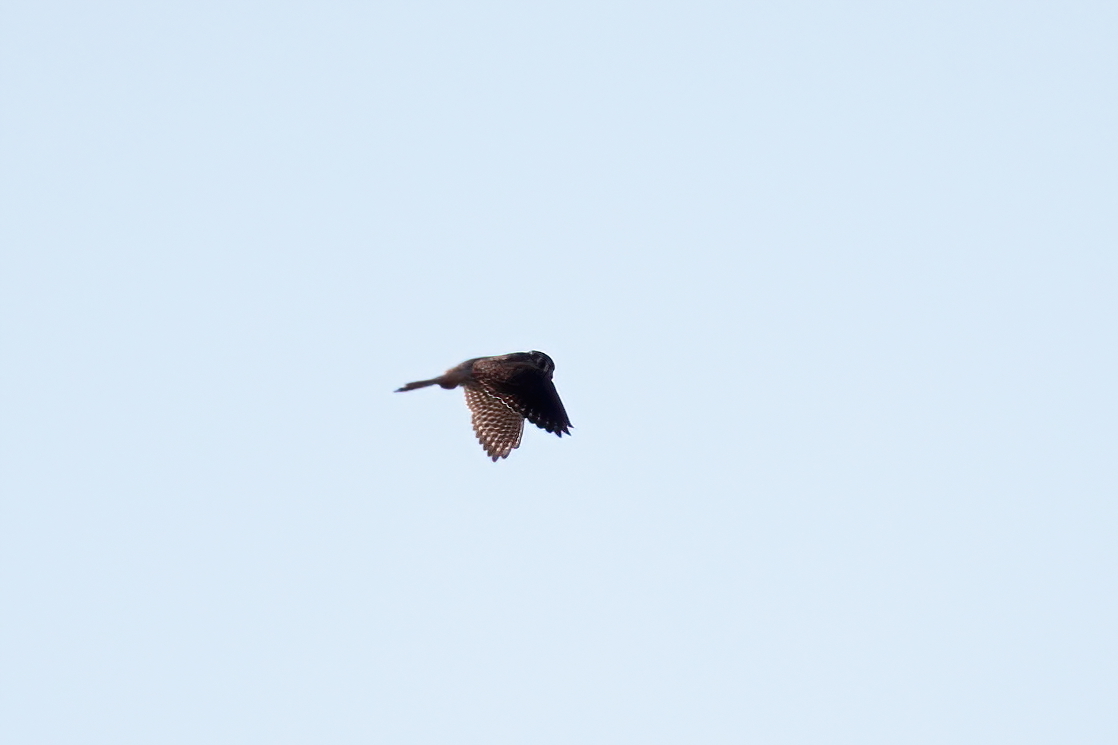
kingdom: Animalia
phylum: Chordata
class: Aves
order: Falconiformes
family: Falconidae
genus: Falco
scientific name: Falco sparverius
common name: American kestrel
